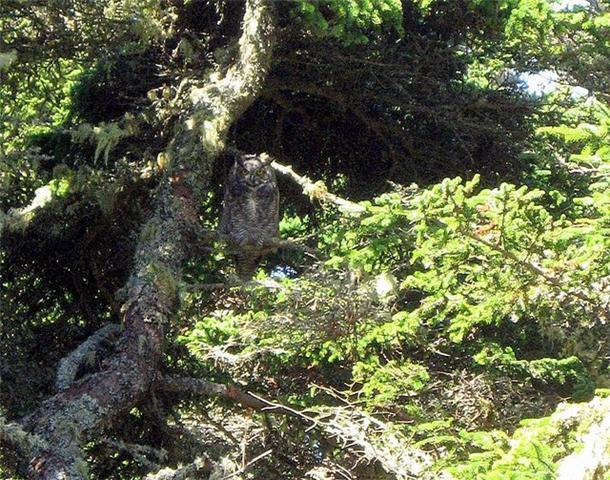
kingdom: Animalia
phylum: Chordata
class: Aves
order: Strigiformes
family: Strigidae
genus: Bubo
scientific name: Bubo virginianus
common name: Great horned owl
